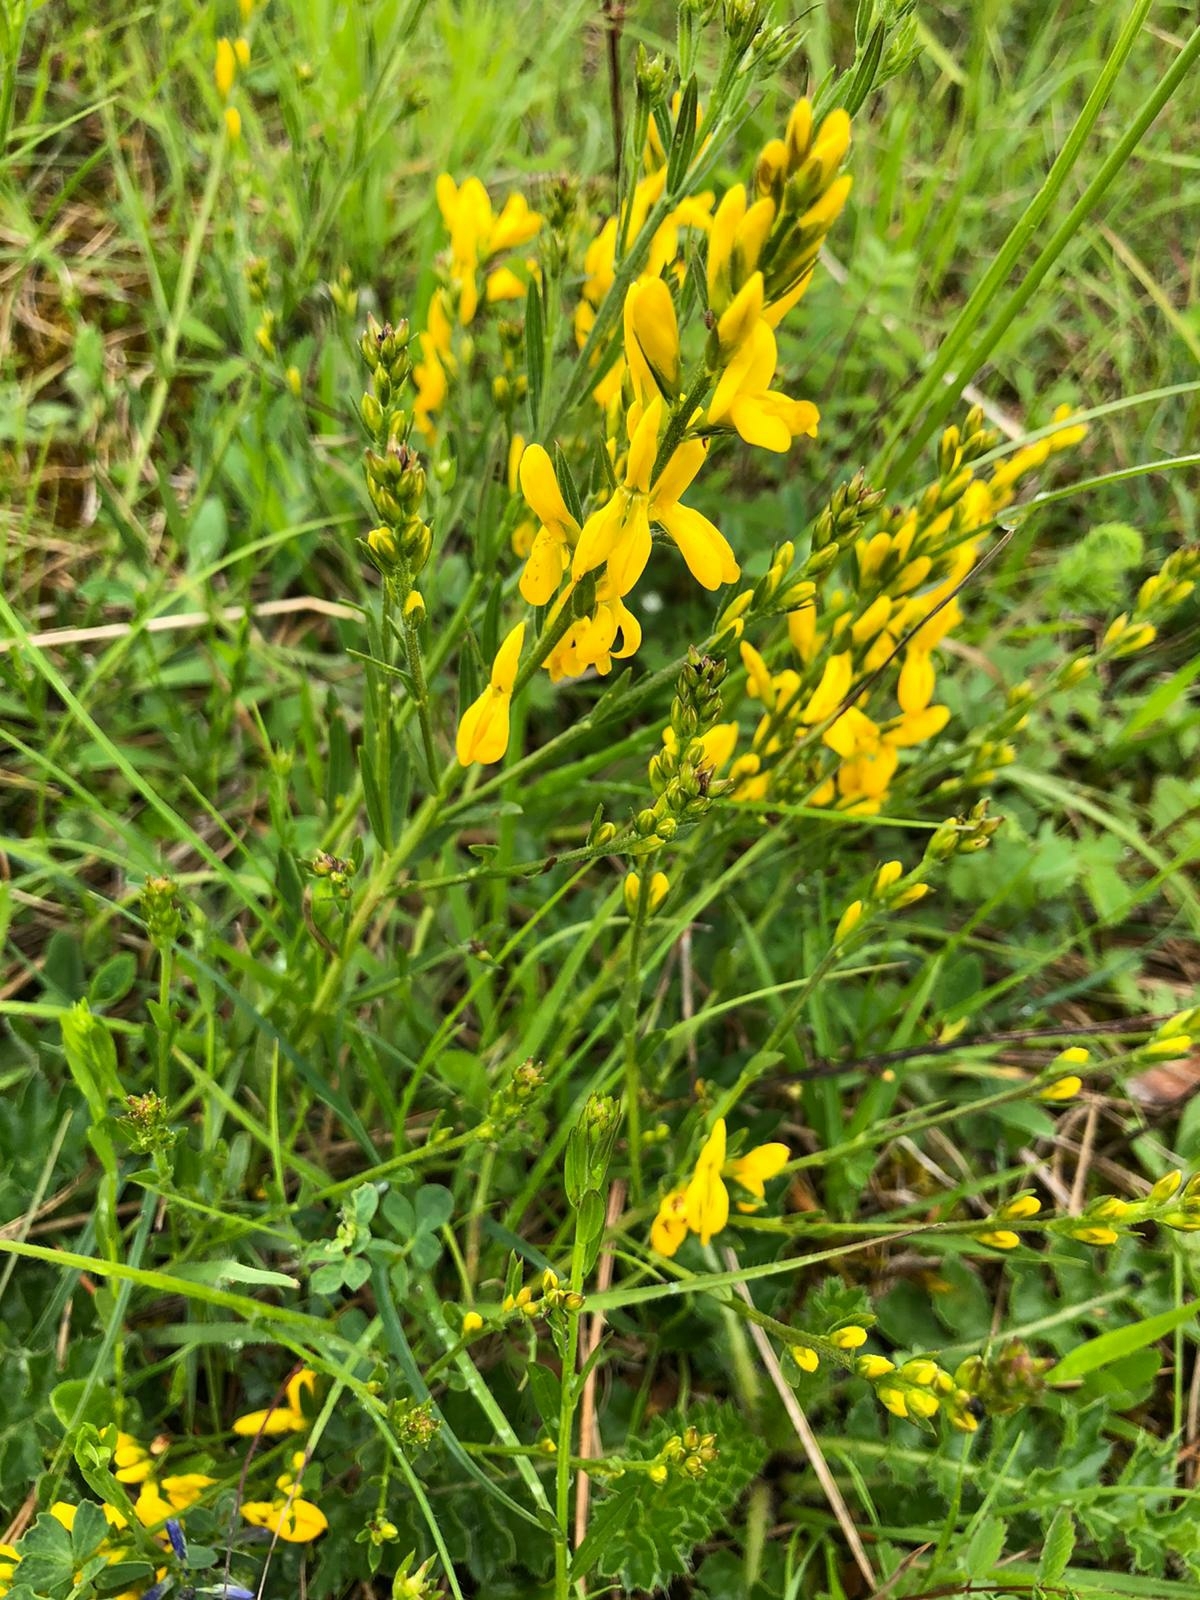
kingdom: Plantae
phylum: Tracheophyta
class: Magnoliopsida
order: Fabales
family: Fabaceae
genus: Genista
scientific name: Genista tinctoria
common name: Dyer's greenweed
